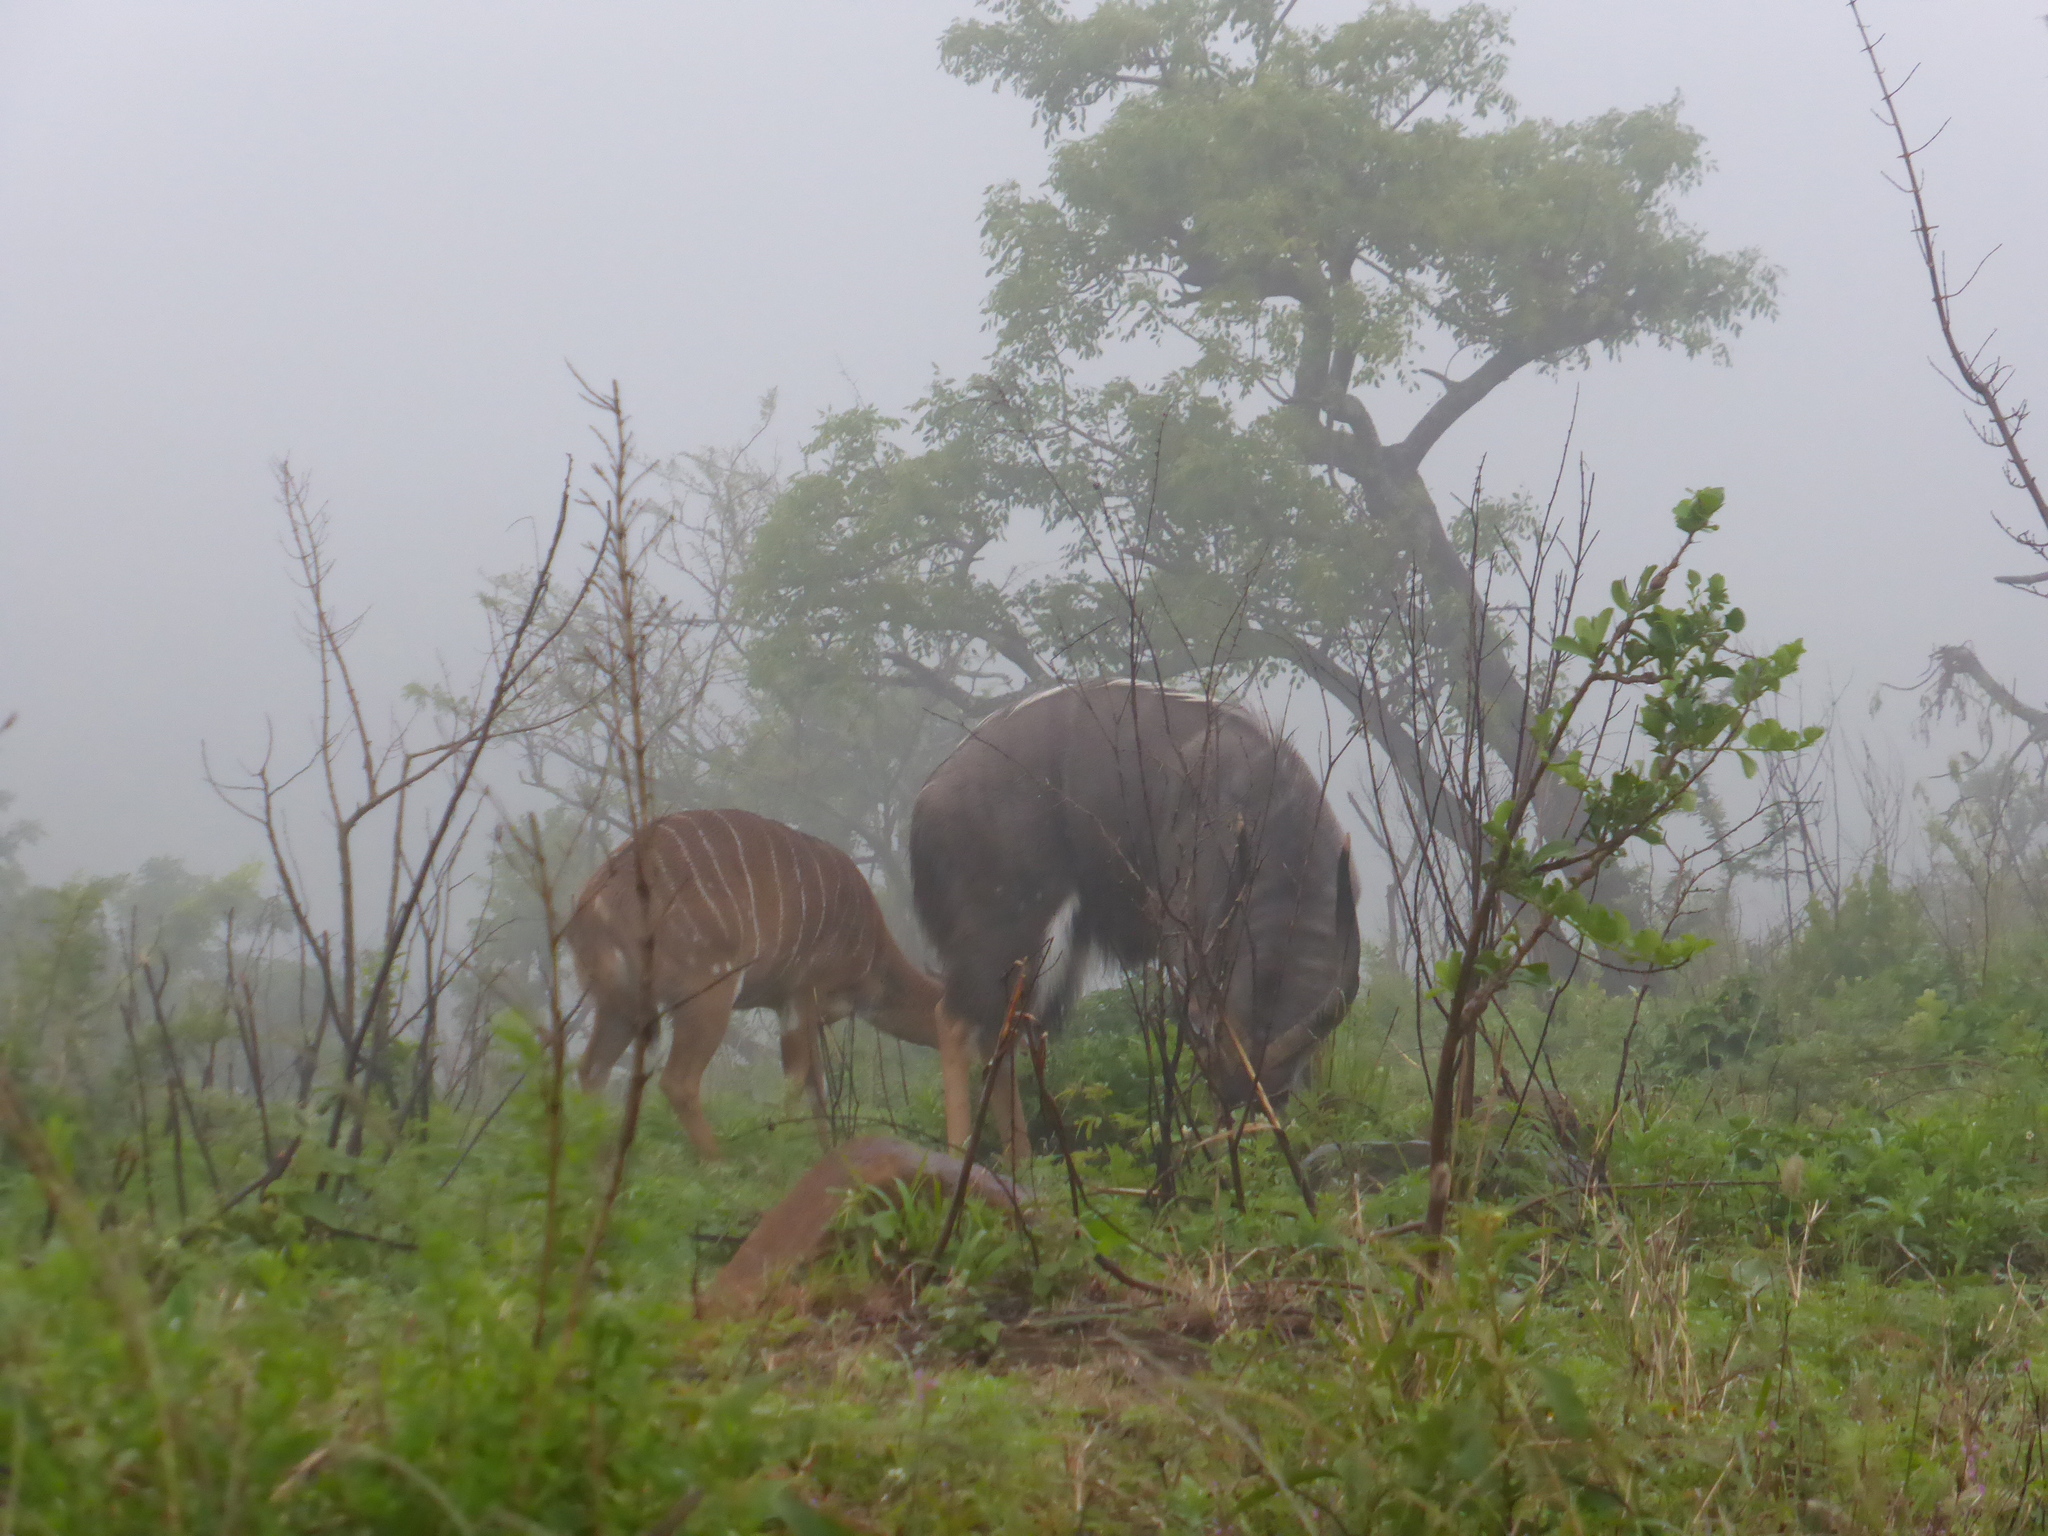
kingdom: Animalia
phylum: Chordata
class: Mammalia
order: Artiodactyla
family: Bovidae
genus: Tragelaphus
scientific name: Tragelaphus angasii
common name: Nyala
